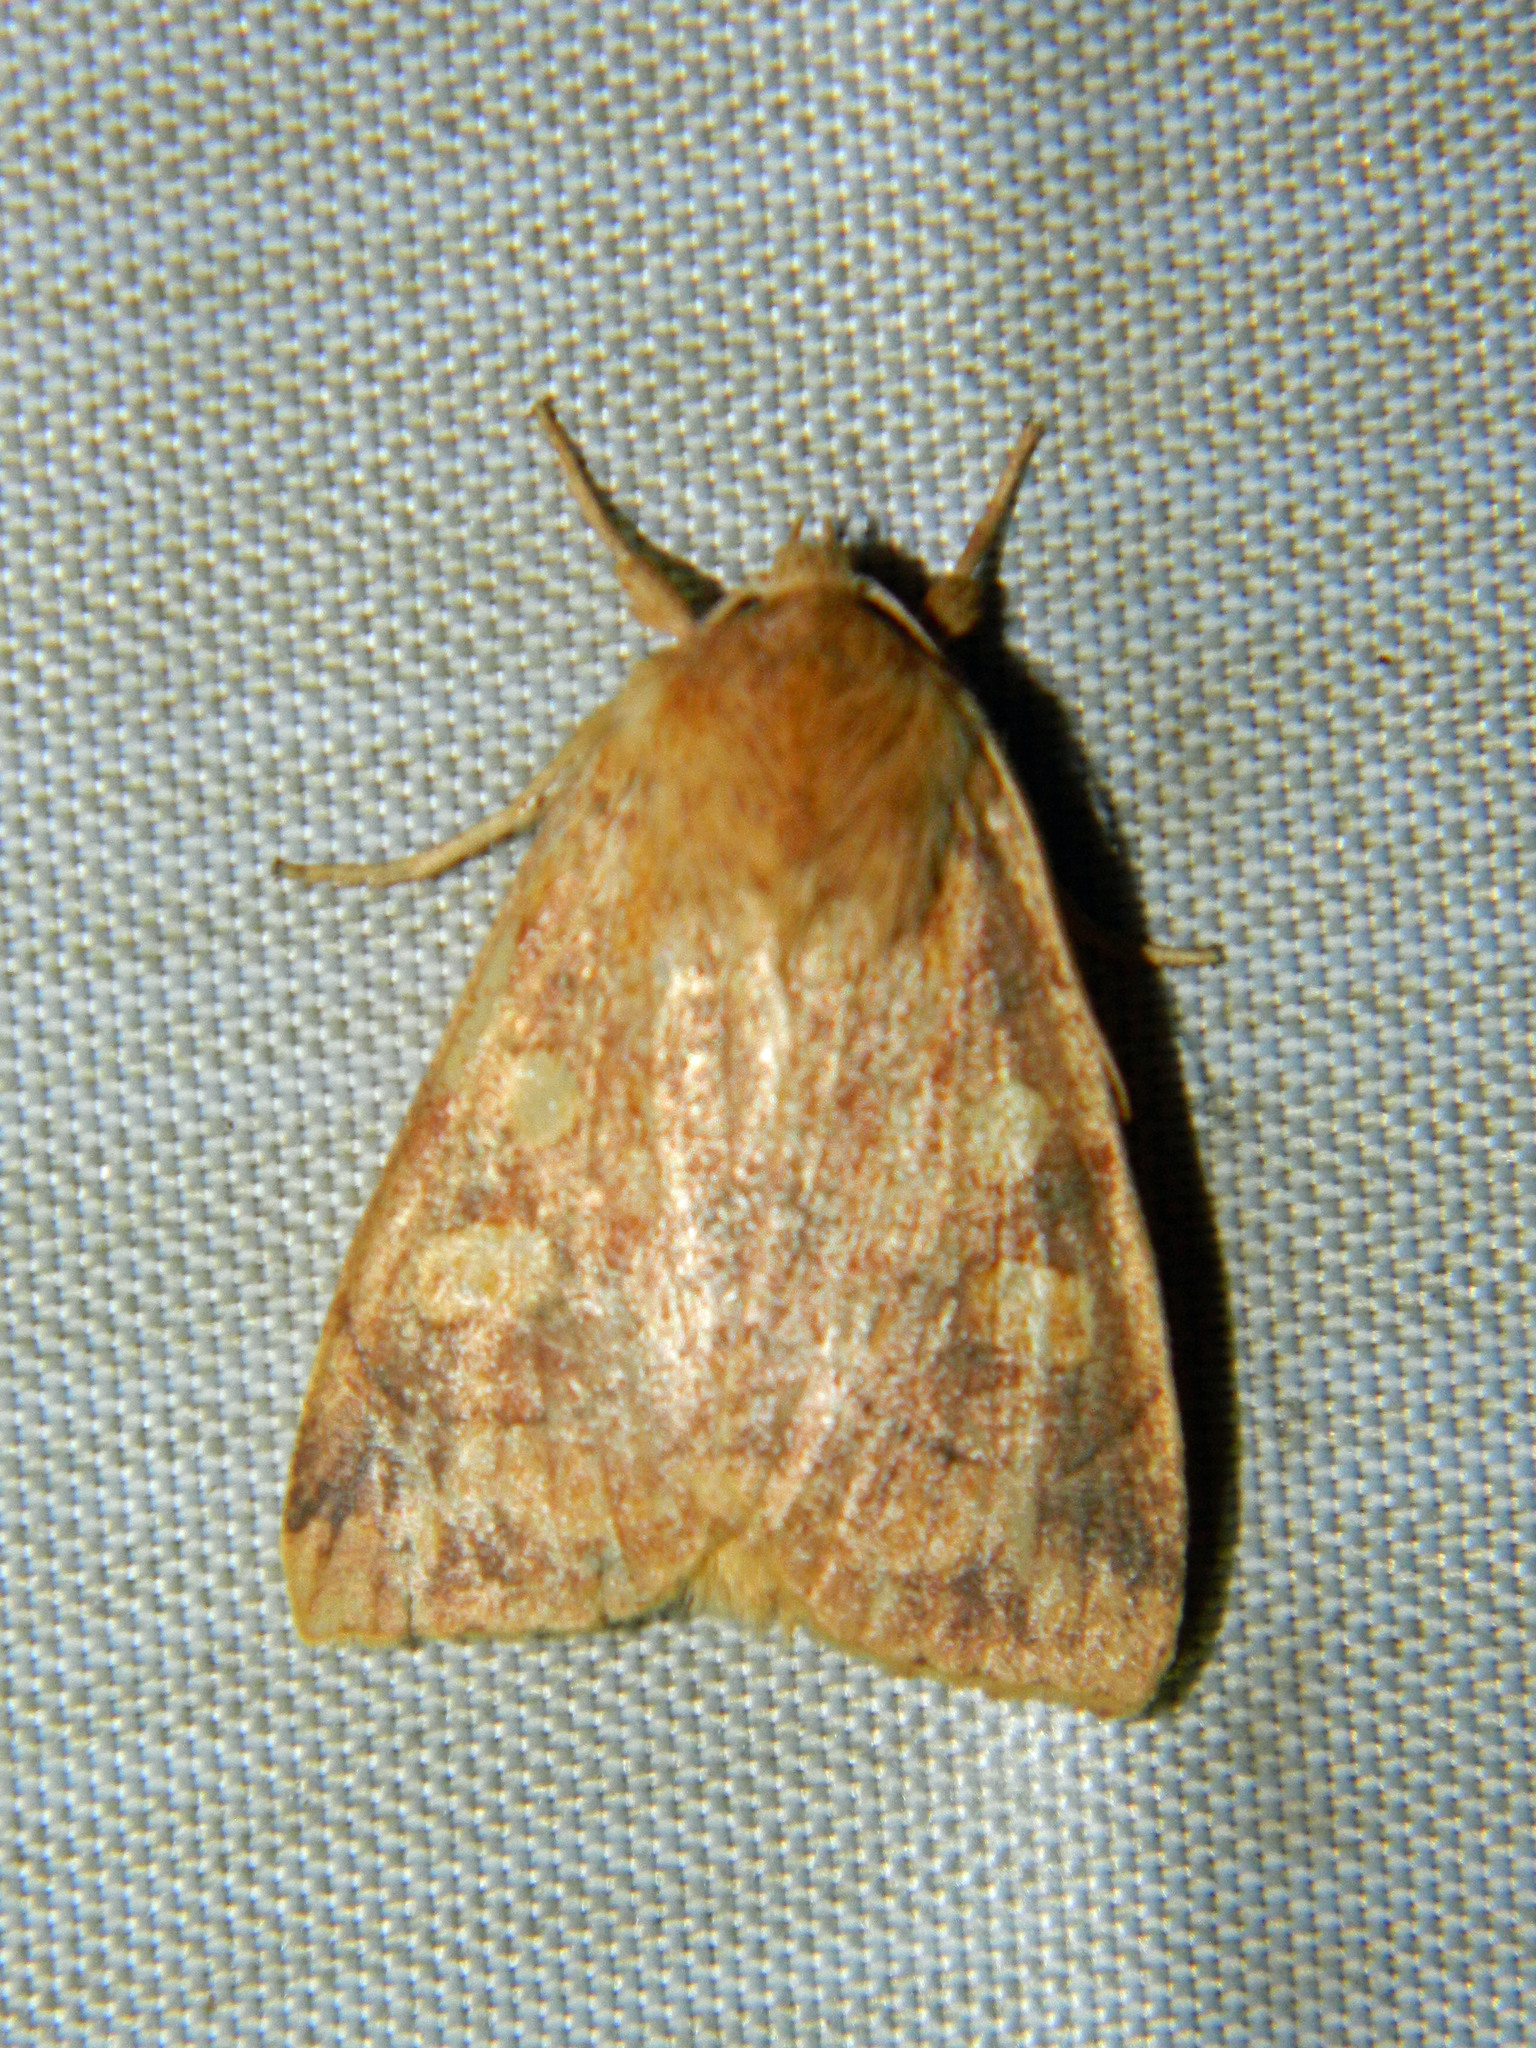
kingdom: Animalia
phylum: Arthropoda
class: Insecta
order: Lepidoptera
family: Noctuidae
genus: Enargia
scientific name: Enargia decolor
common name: Aspen twoleaf tier moth
